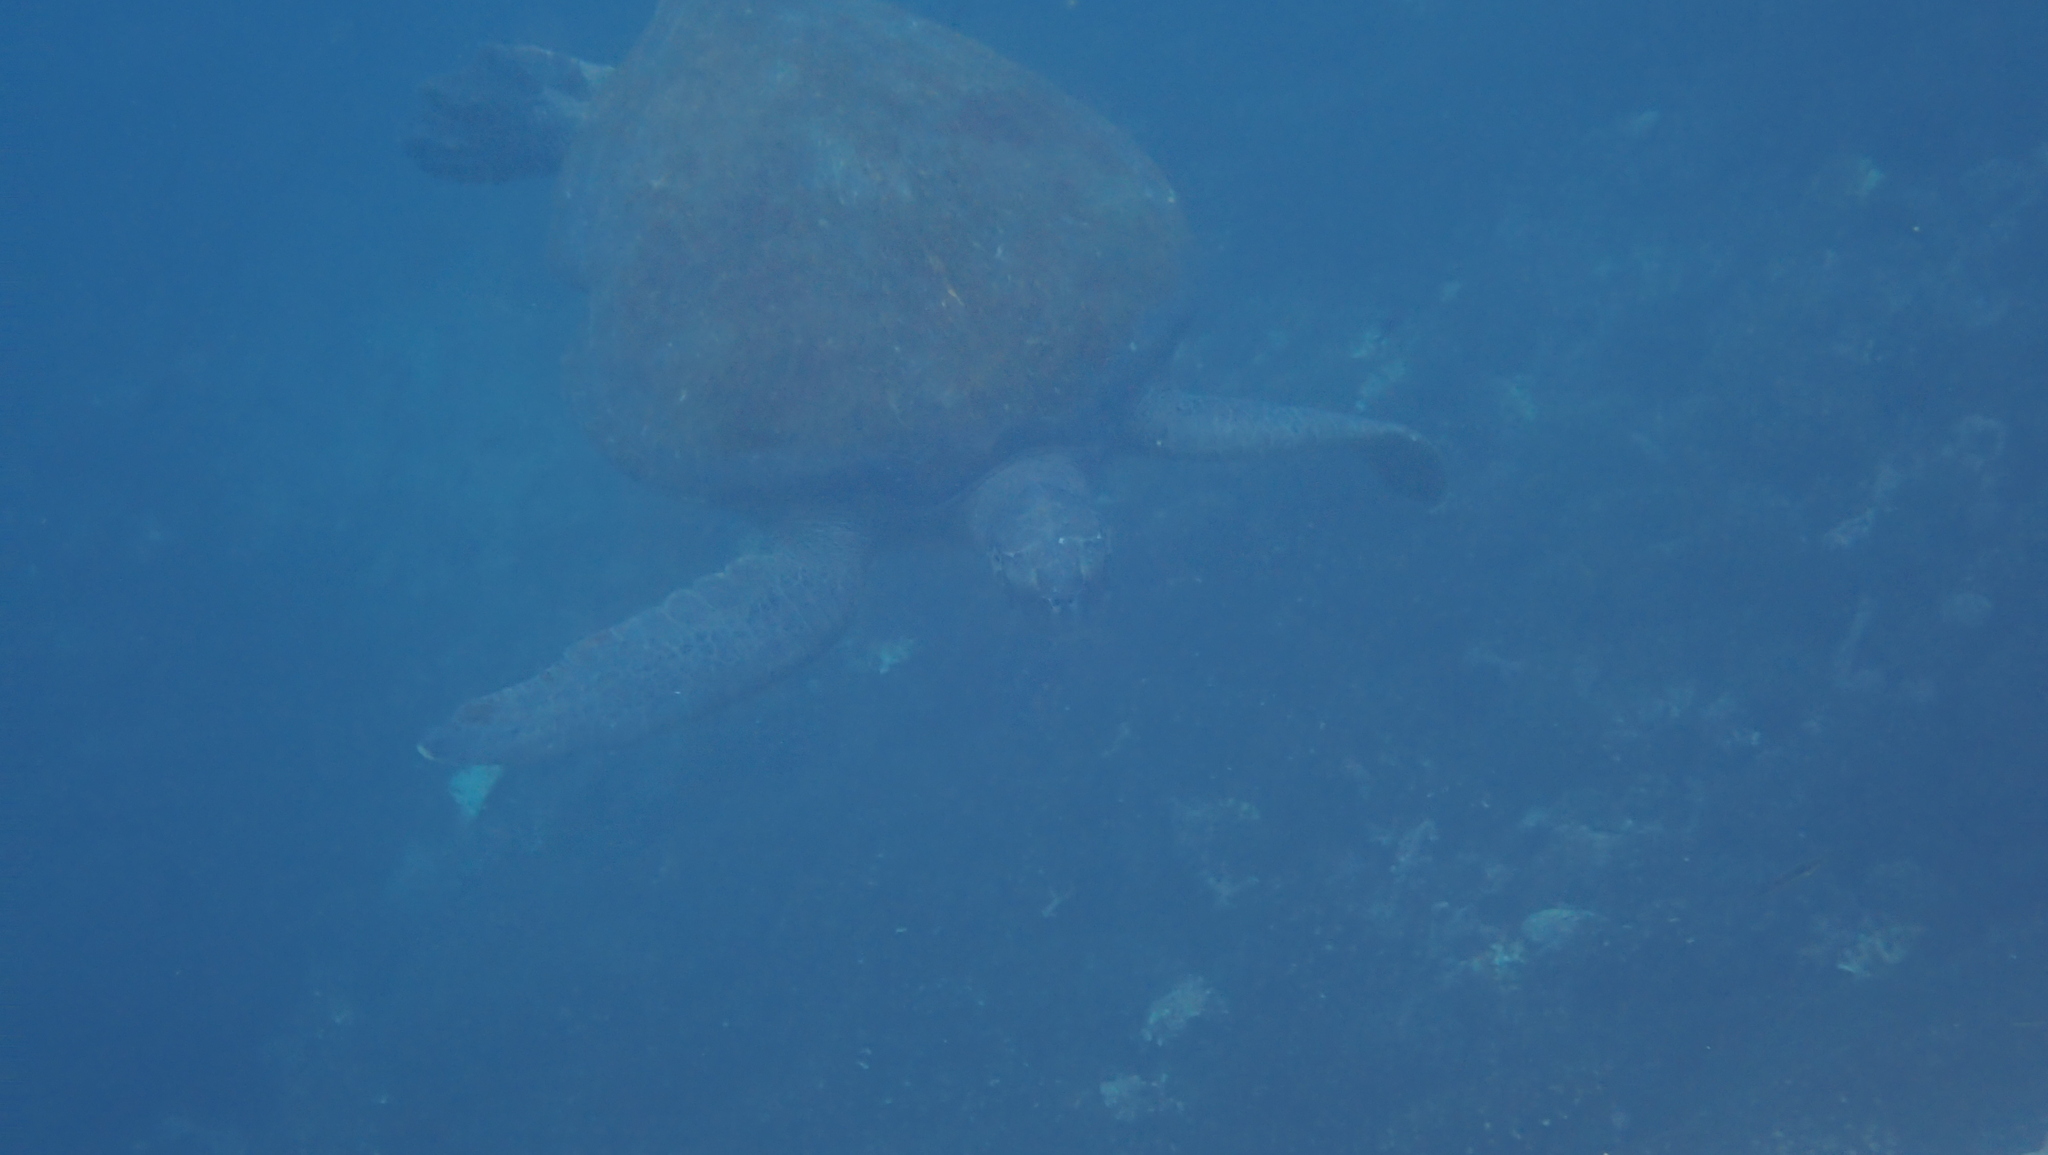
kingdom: Animalia
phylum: Chordata
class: Testudines
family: Cheloniidae
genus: Chelonia
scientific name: Chelonia mydas
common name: Green turtle
